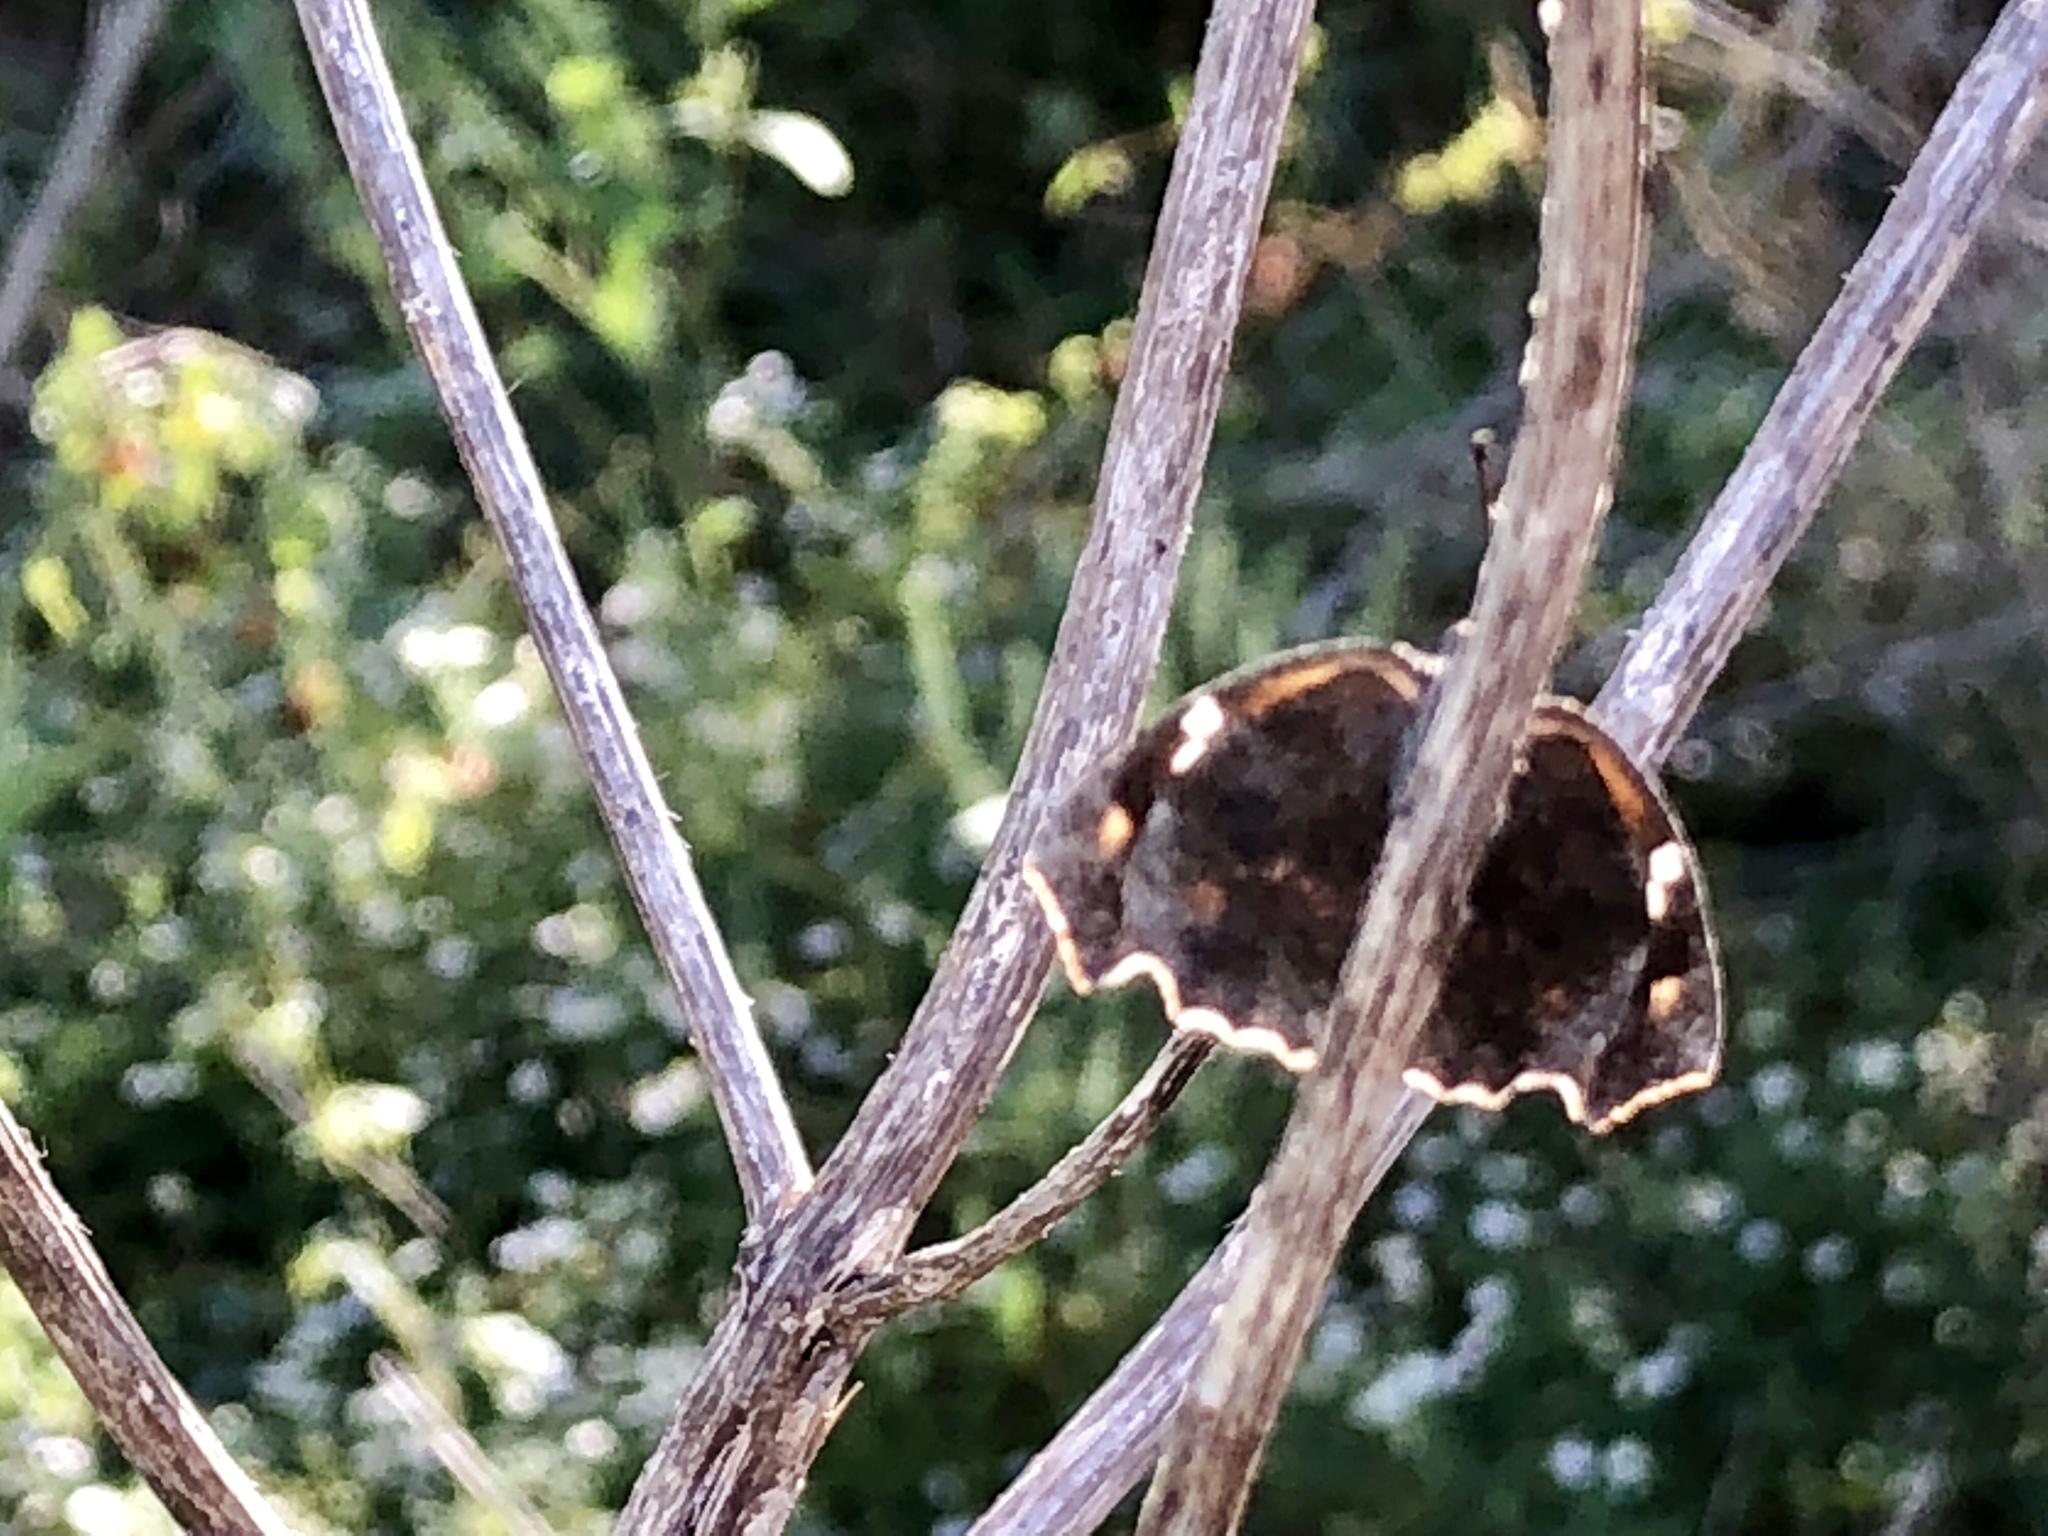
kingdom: Animalia
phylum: Arthropoda
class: Insecta
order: Lepidoptera
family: Nymphalidae
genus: Libytheana
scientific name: Libytheana carinenta
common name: American snout
